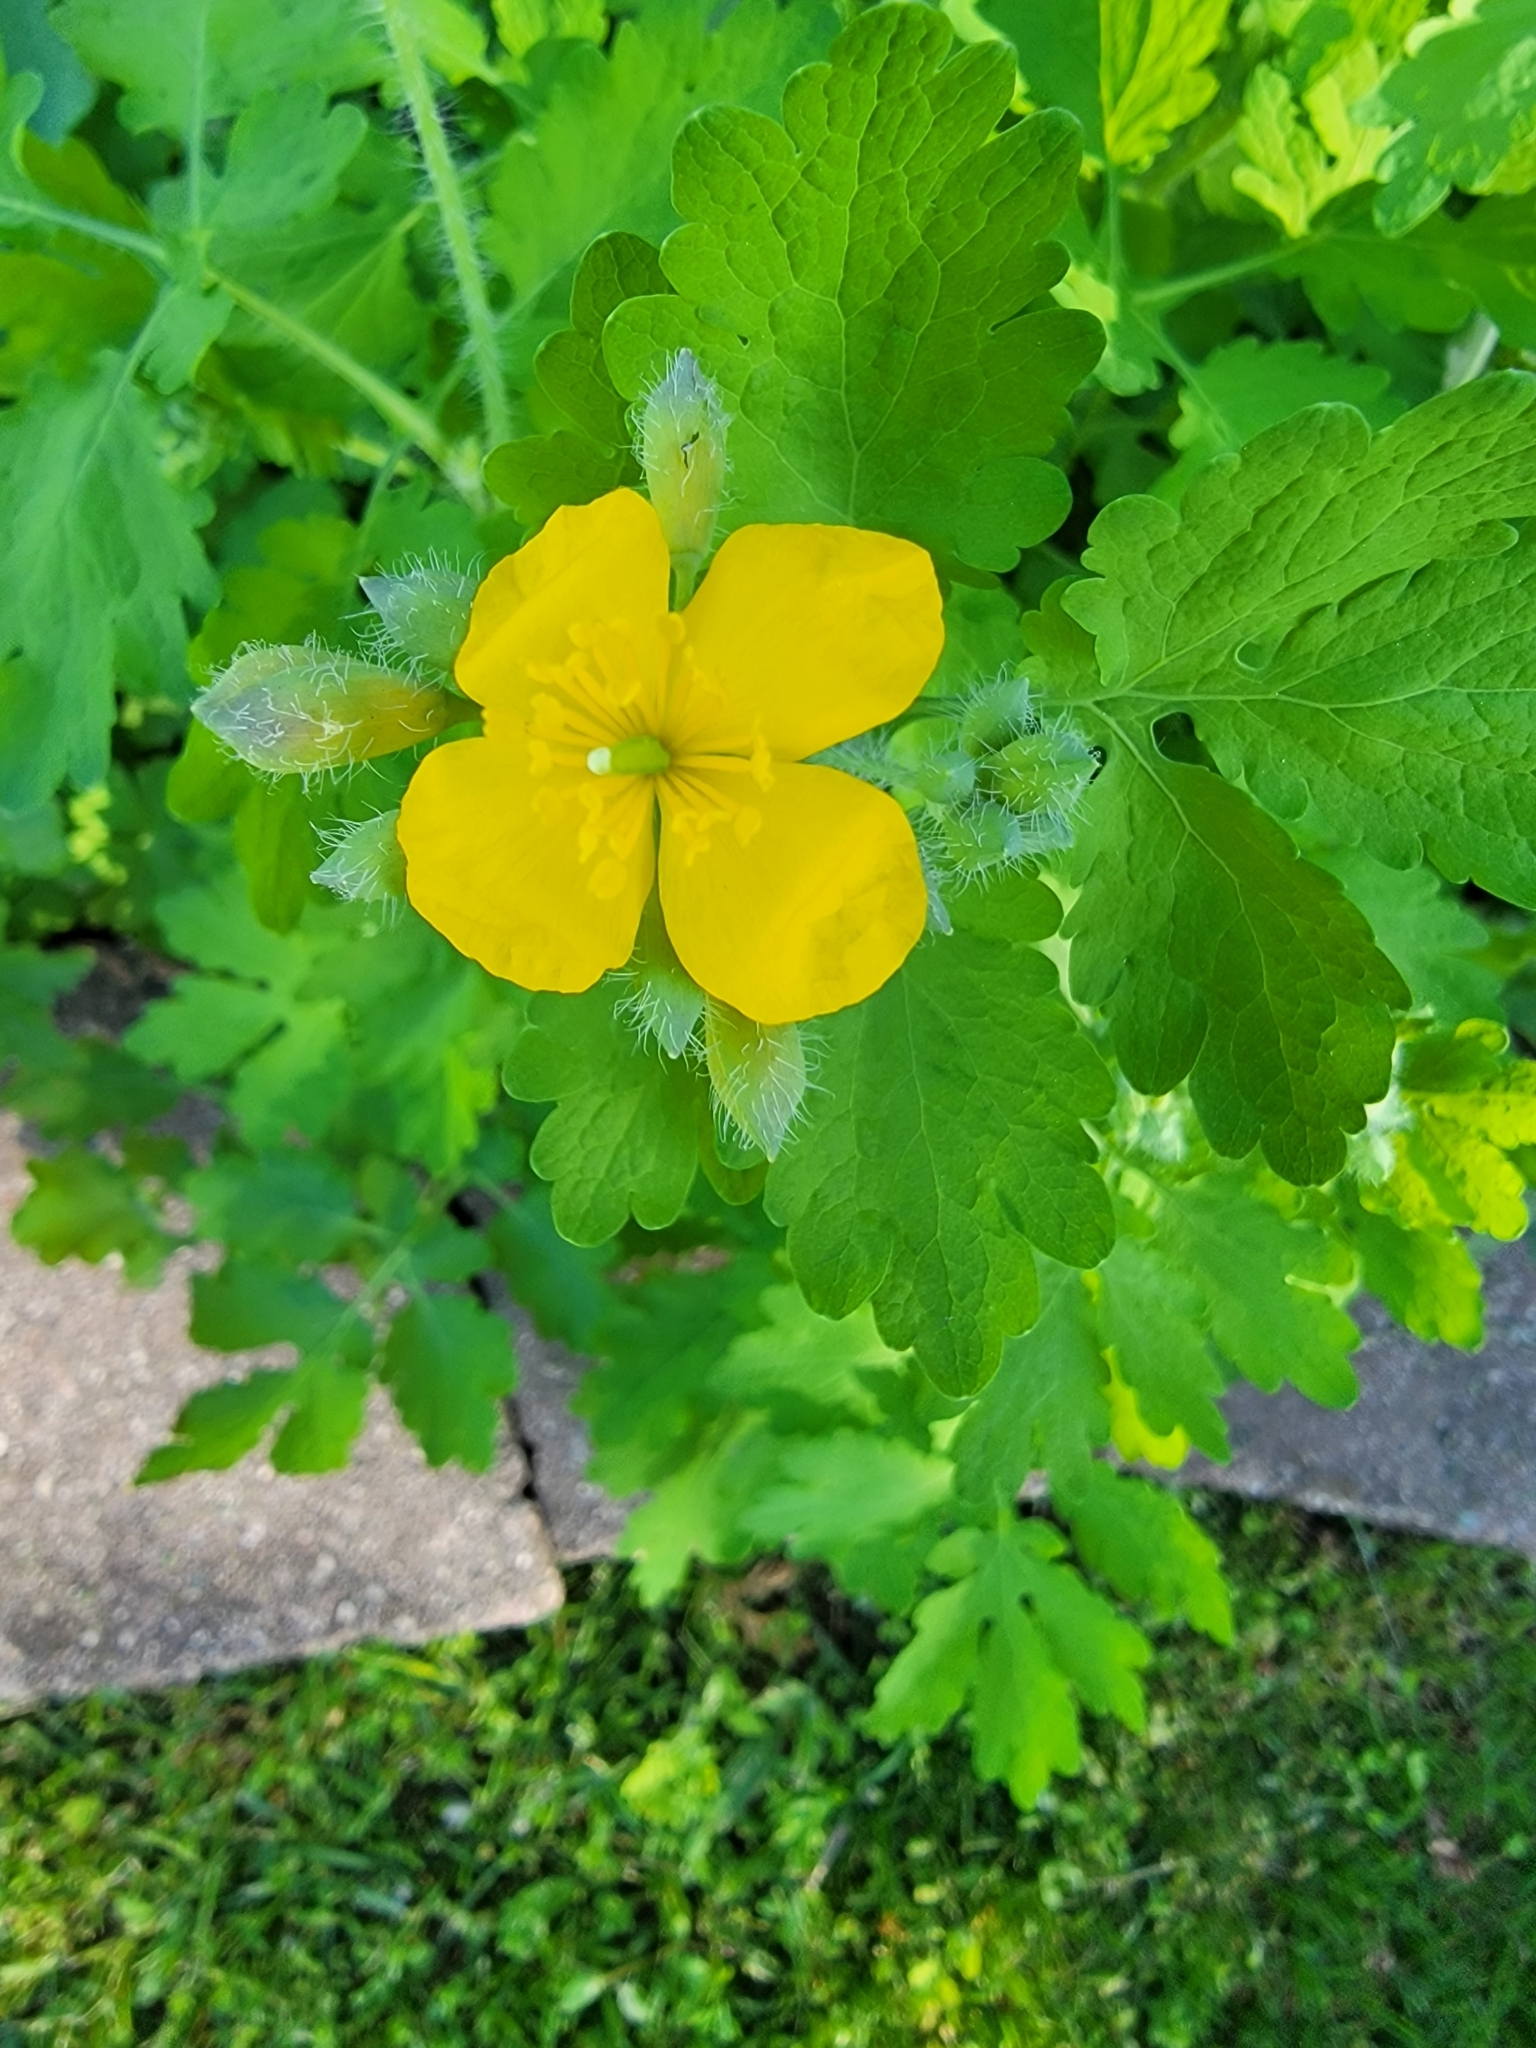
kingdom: Plantae
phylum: Tracheophyta
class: Magnoliopsida
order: Ranunculales
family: Papaveraceae
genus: Chelidonium
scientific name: Chelidonium majus
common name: Greater celandine
